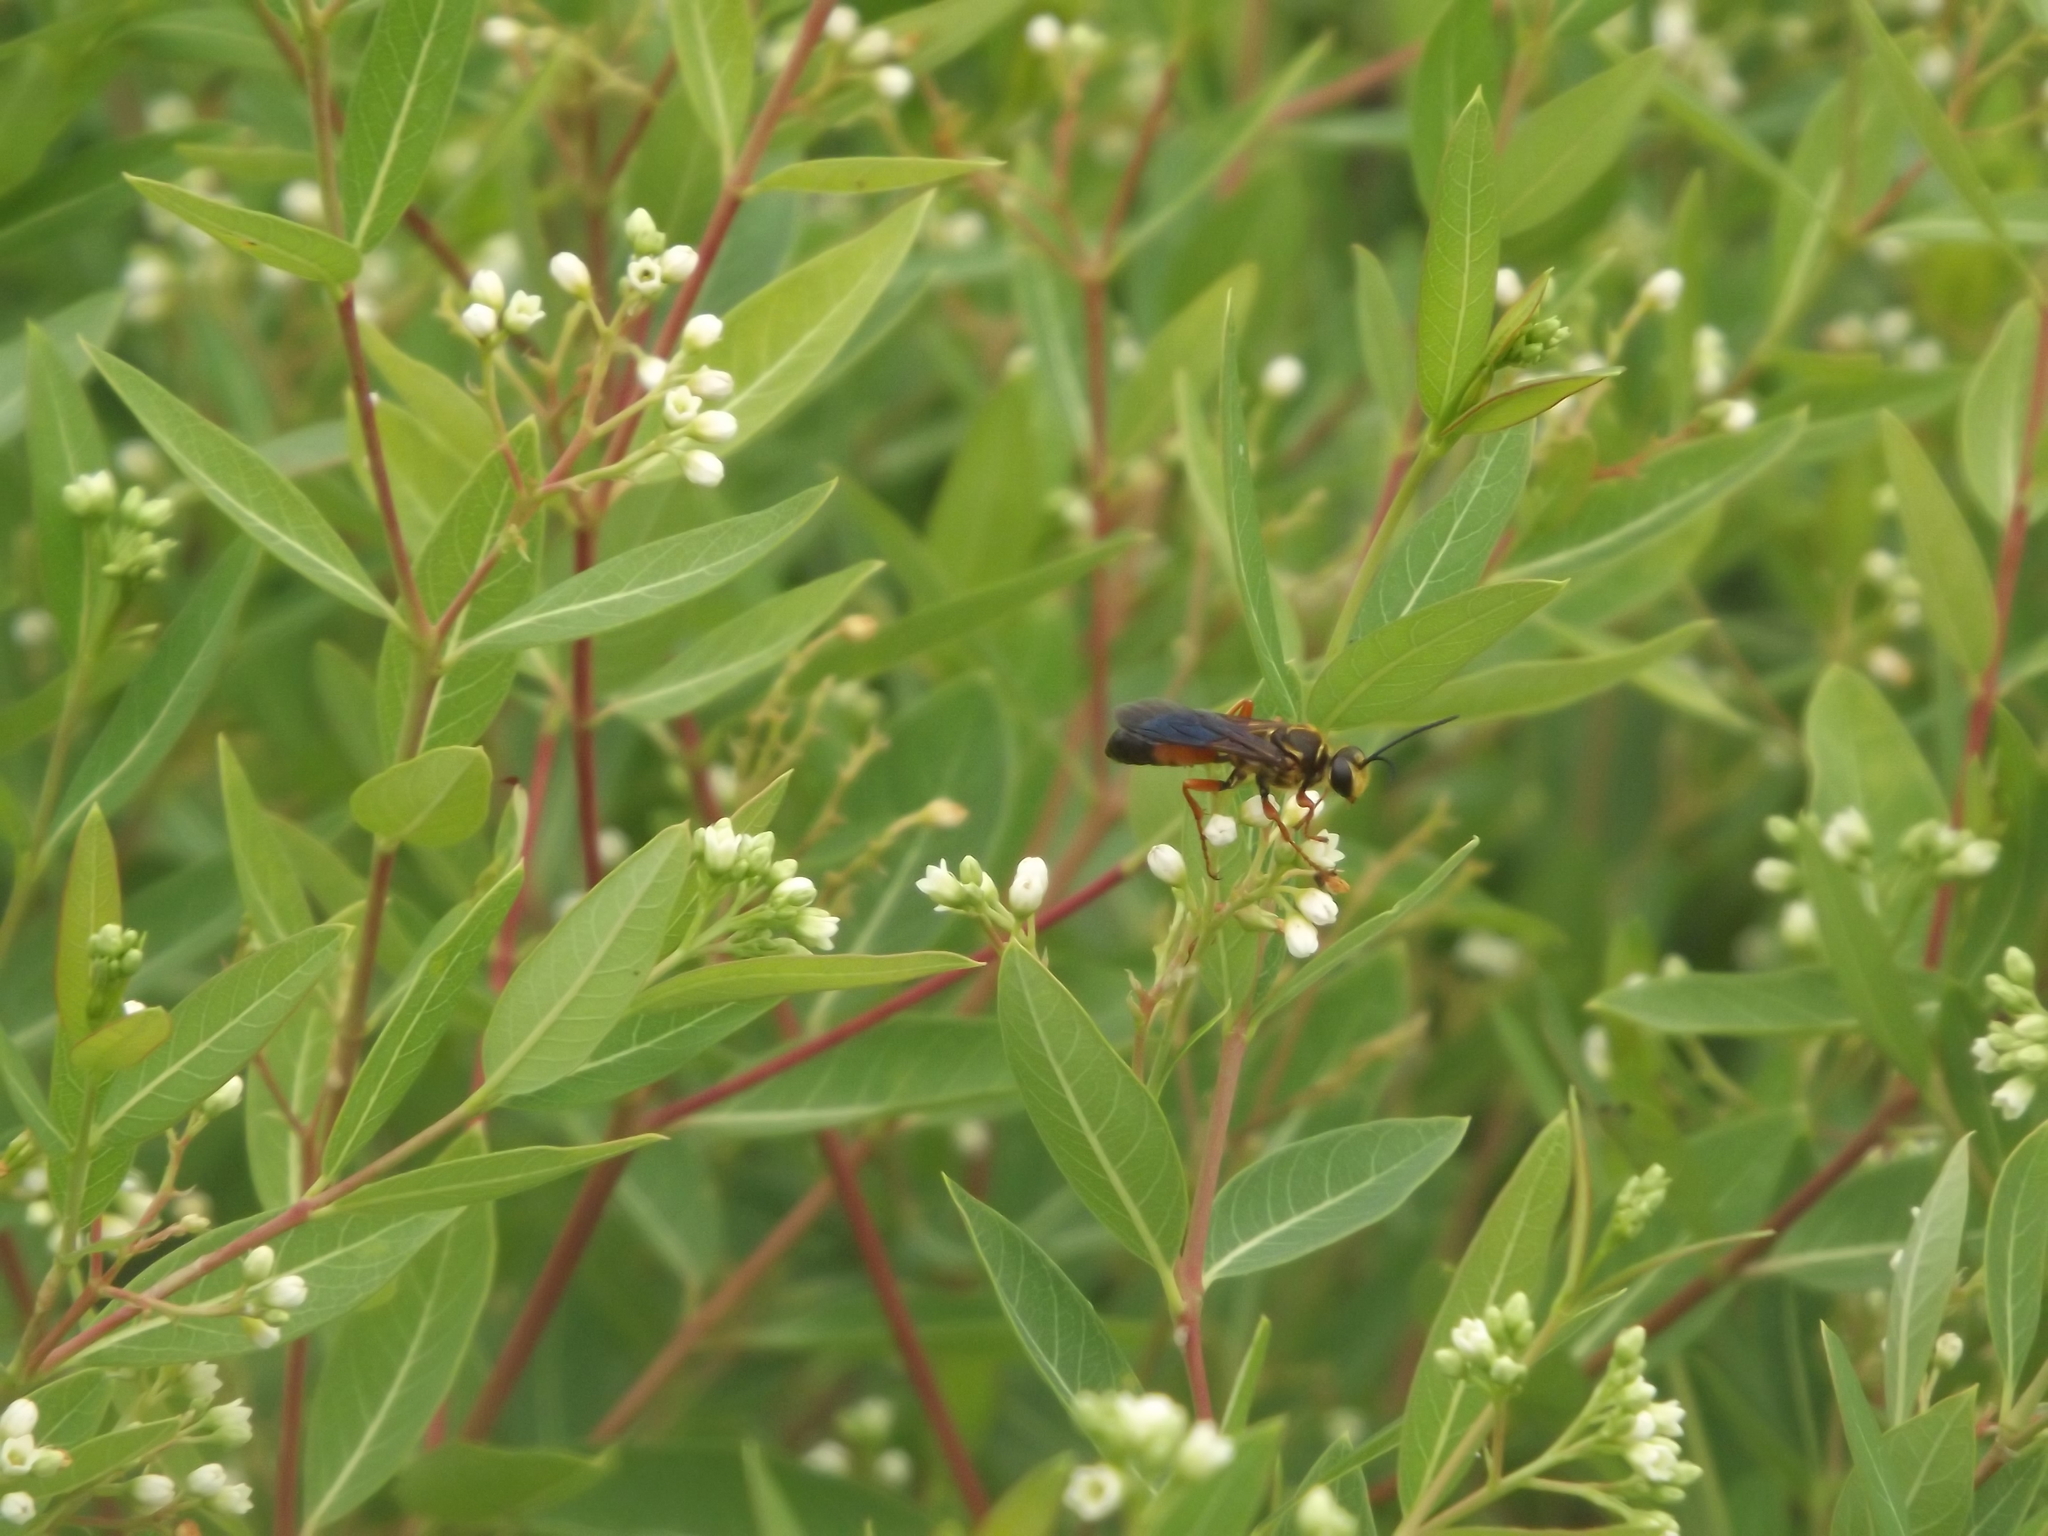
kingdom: Animalia
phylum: Arthropoda
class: Insecta
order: Hymenoptera
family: Sphecidae
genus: Sphex
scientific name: Sphex ichneumoneus
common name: Great golden digger wasp
